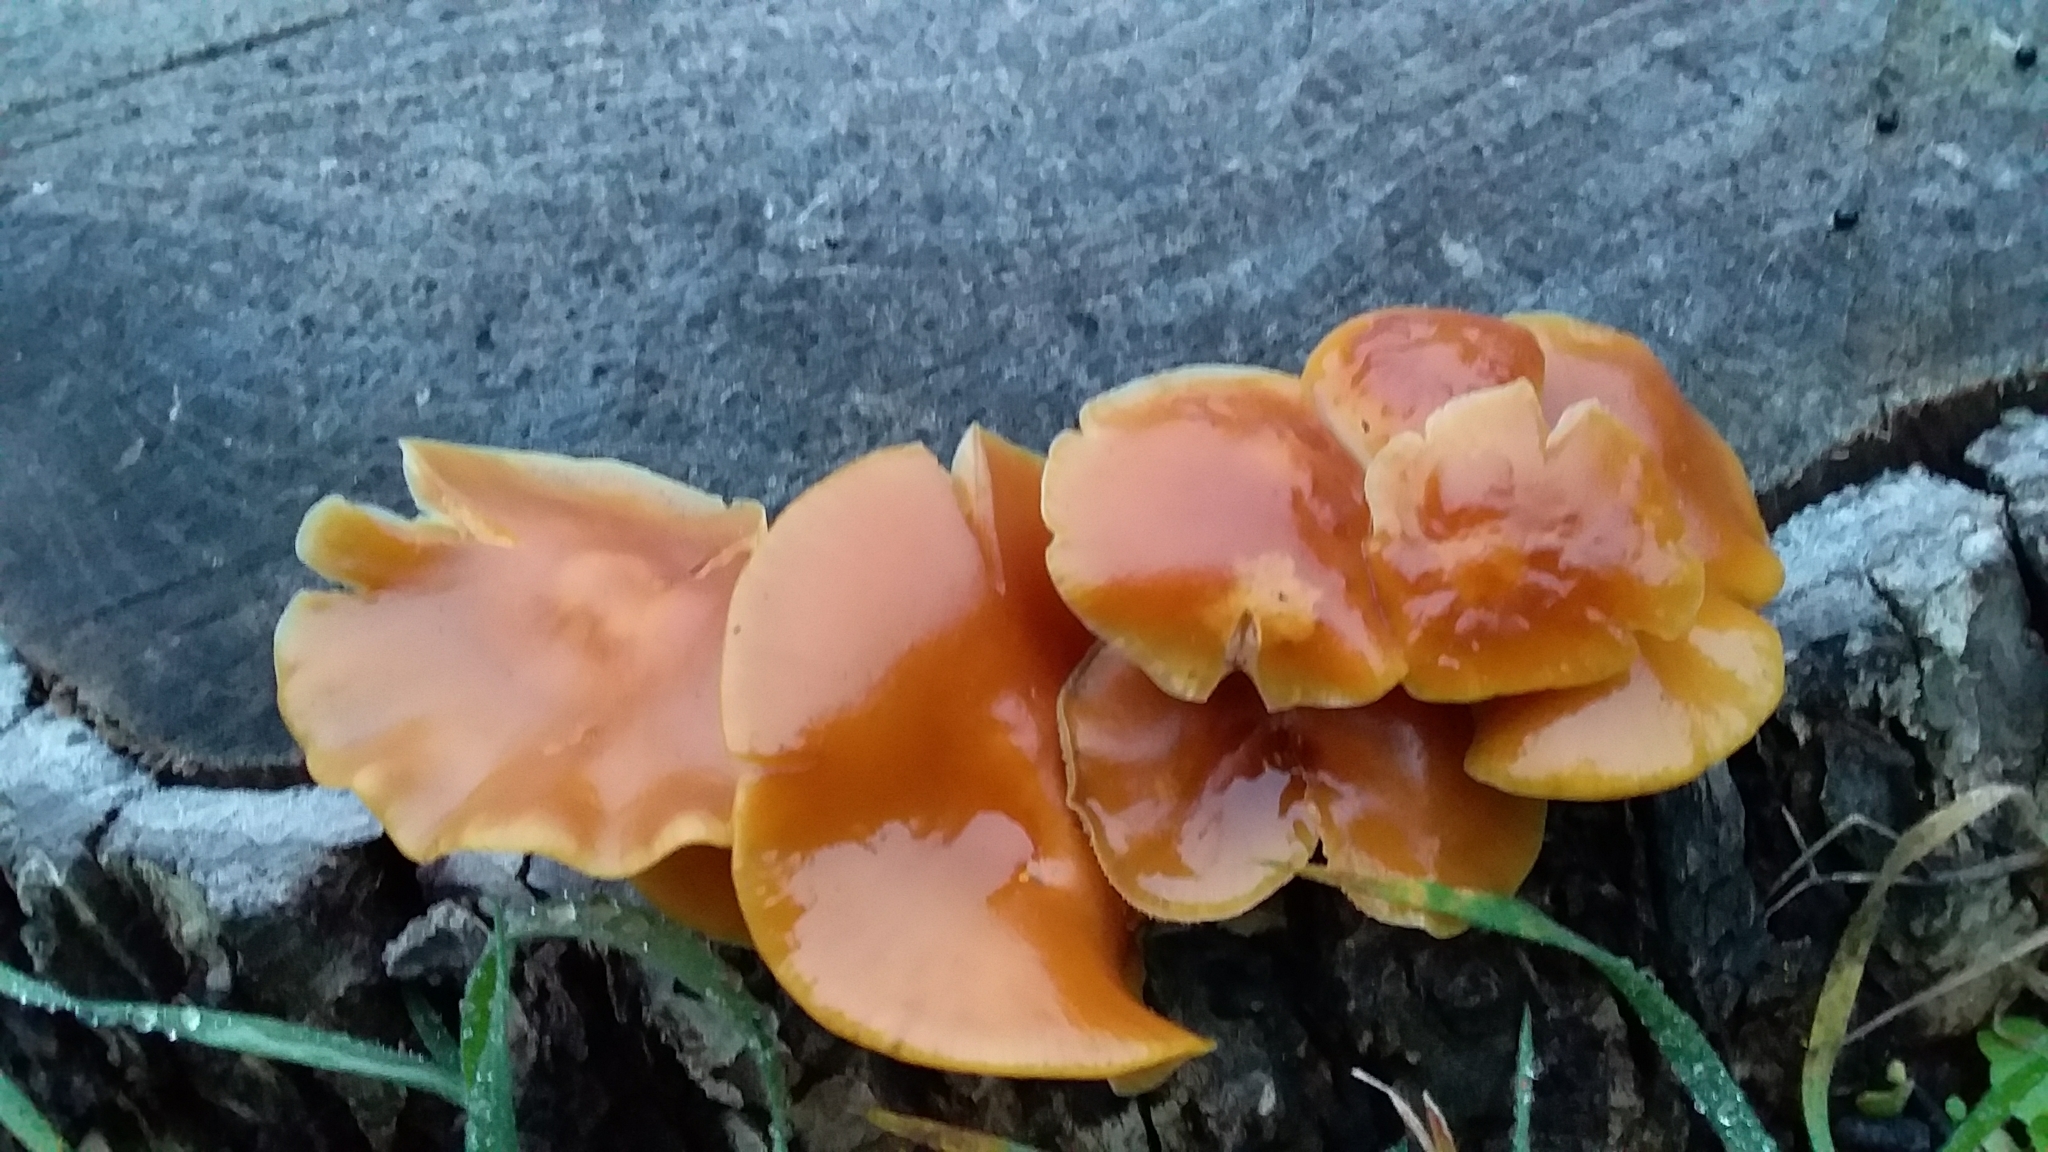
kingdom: Fungi
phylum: Basidiomycota
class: Agaricomycetes
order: Agaricales
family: Physalacriaceae
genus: Flammulina
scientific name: Flammulina velutipes
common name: Velvet shank
